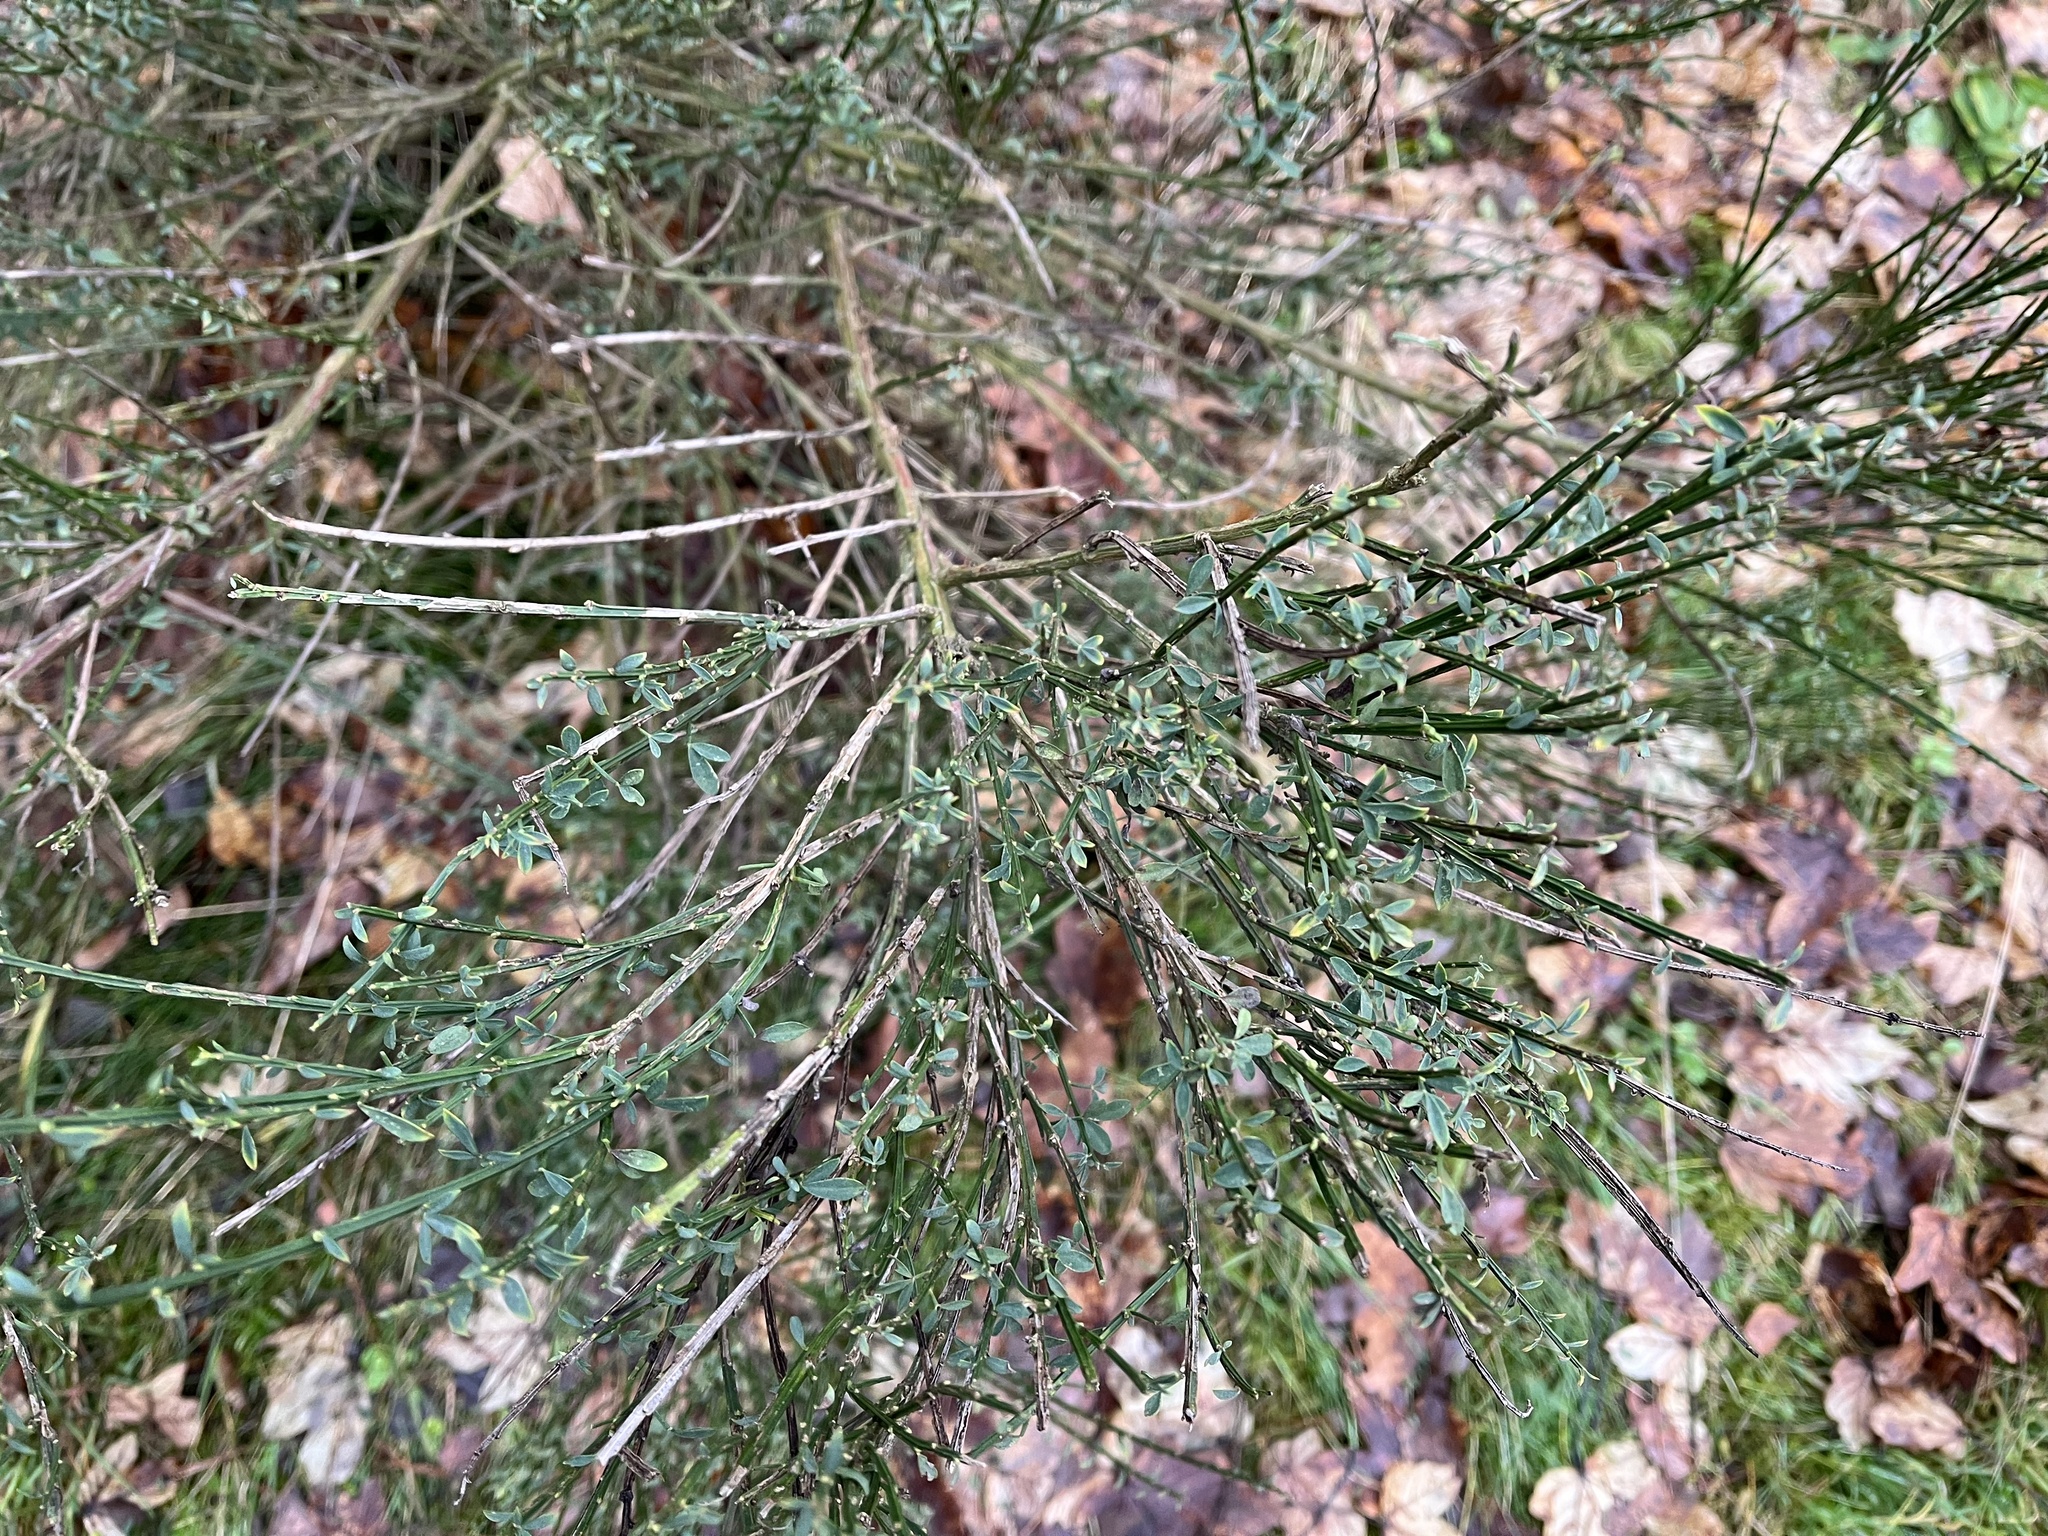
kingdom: Plantae
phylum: Tracheophyta
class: Magnoliopsida
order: Fabales
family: Fabaceae
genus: Cytisus
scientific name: Cytisus scoparius
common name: Scotch broom
